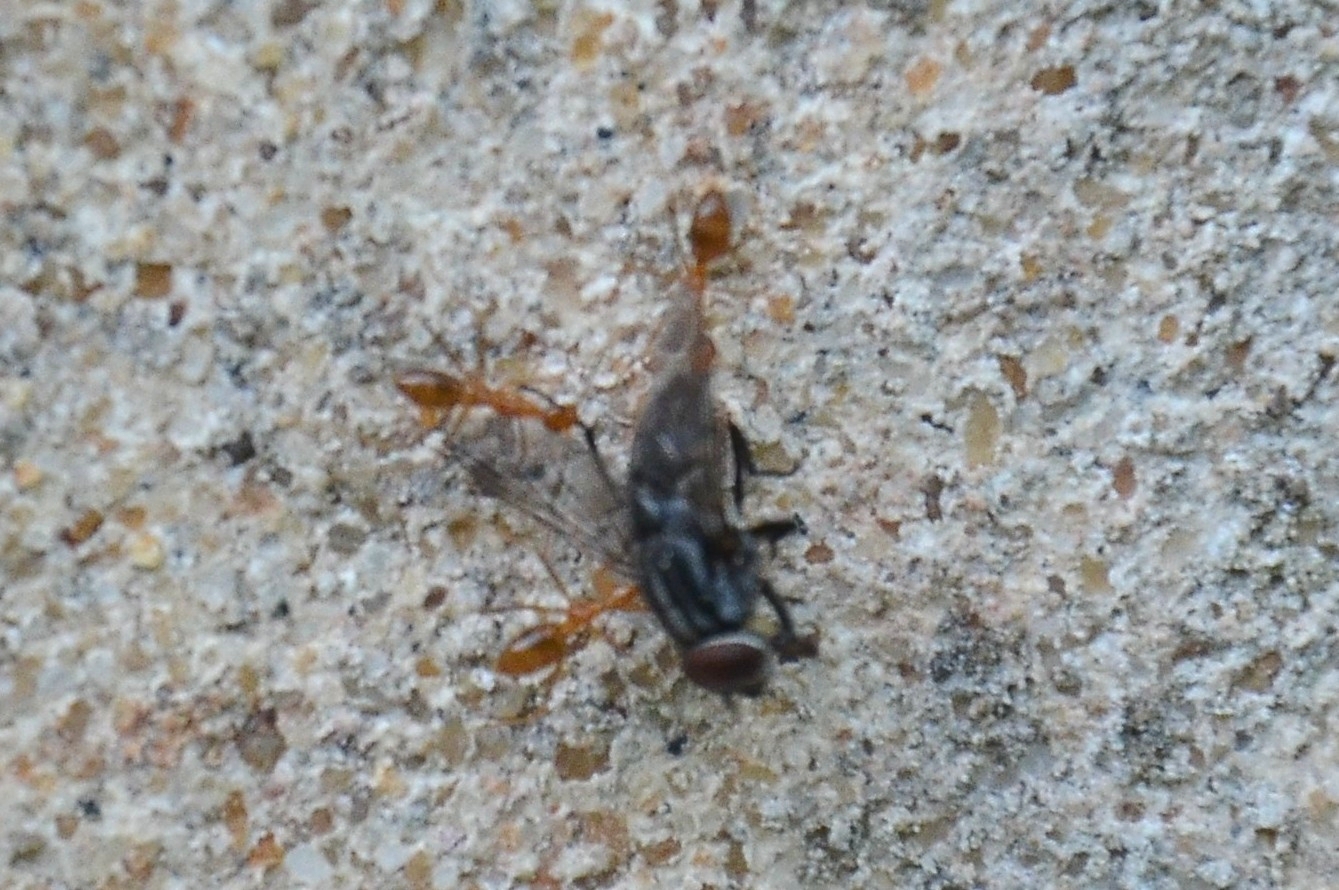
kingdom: Animalia
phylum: Arthropoda
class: Insecta
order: Hymenoptera
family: Formicidae
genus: Anoplolepis
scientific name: Anoplolepis gracilipes
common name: Ant
